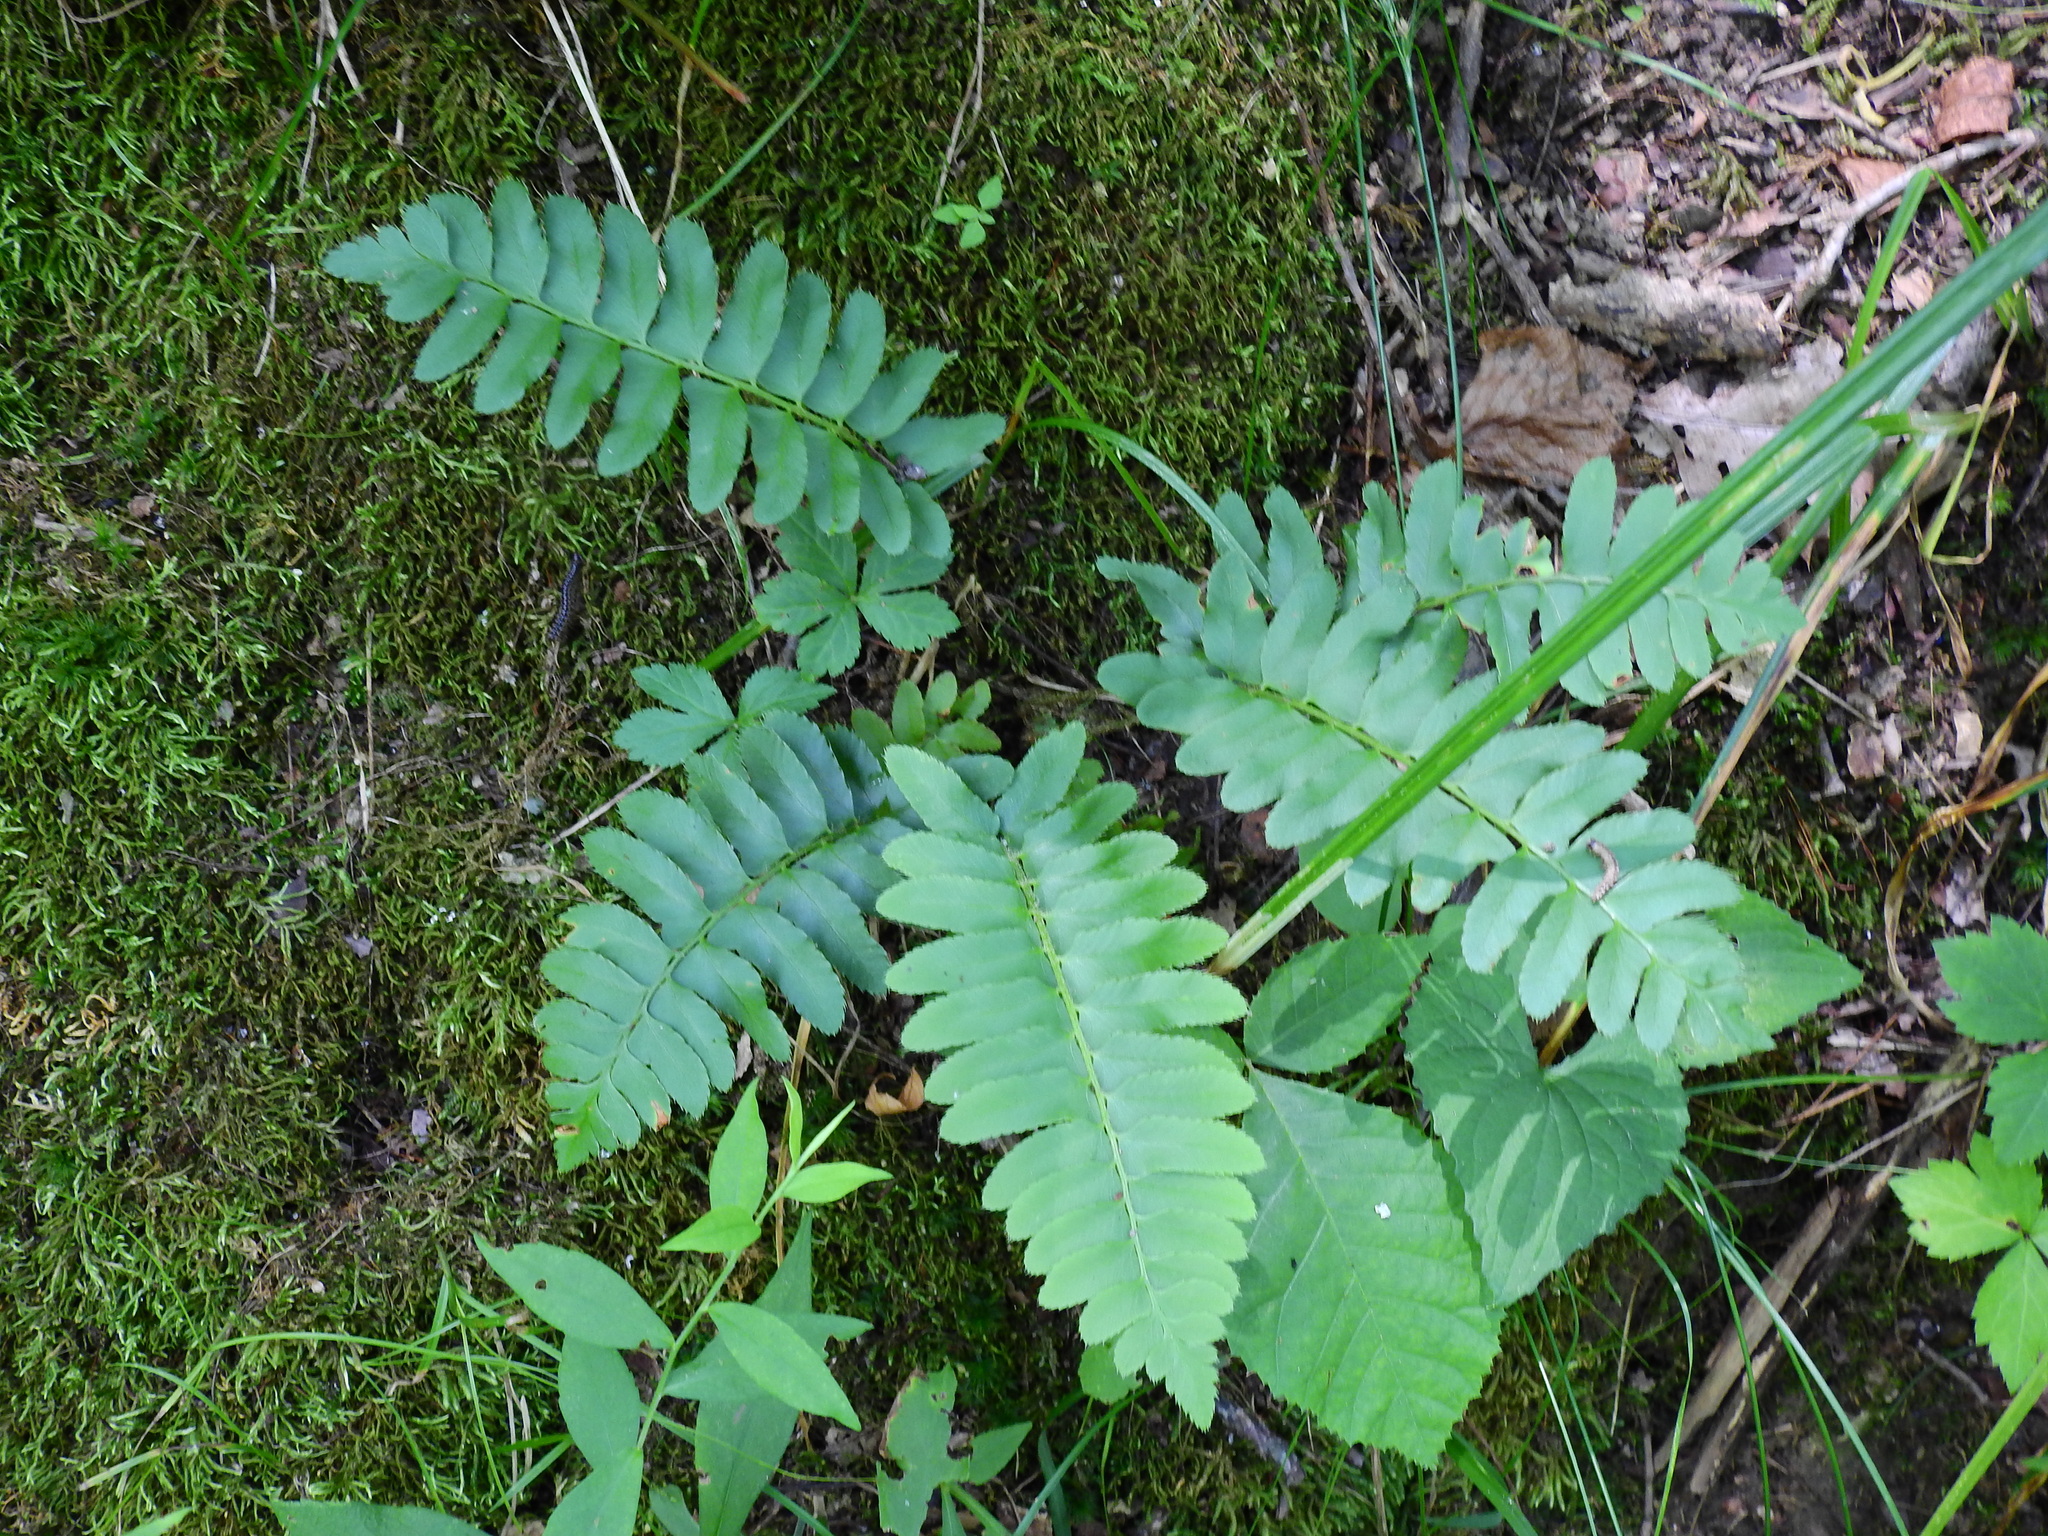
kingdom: Plantae
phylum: Tracheophyta
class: Polypodiopsida
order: Polypodiales
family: Dryopteridaceae
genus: Polystichum
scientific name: Polystichum acrostichoides
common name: Christmas fern
